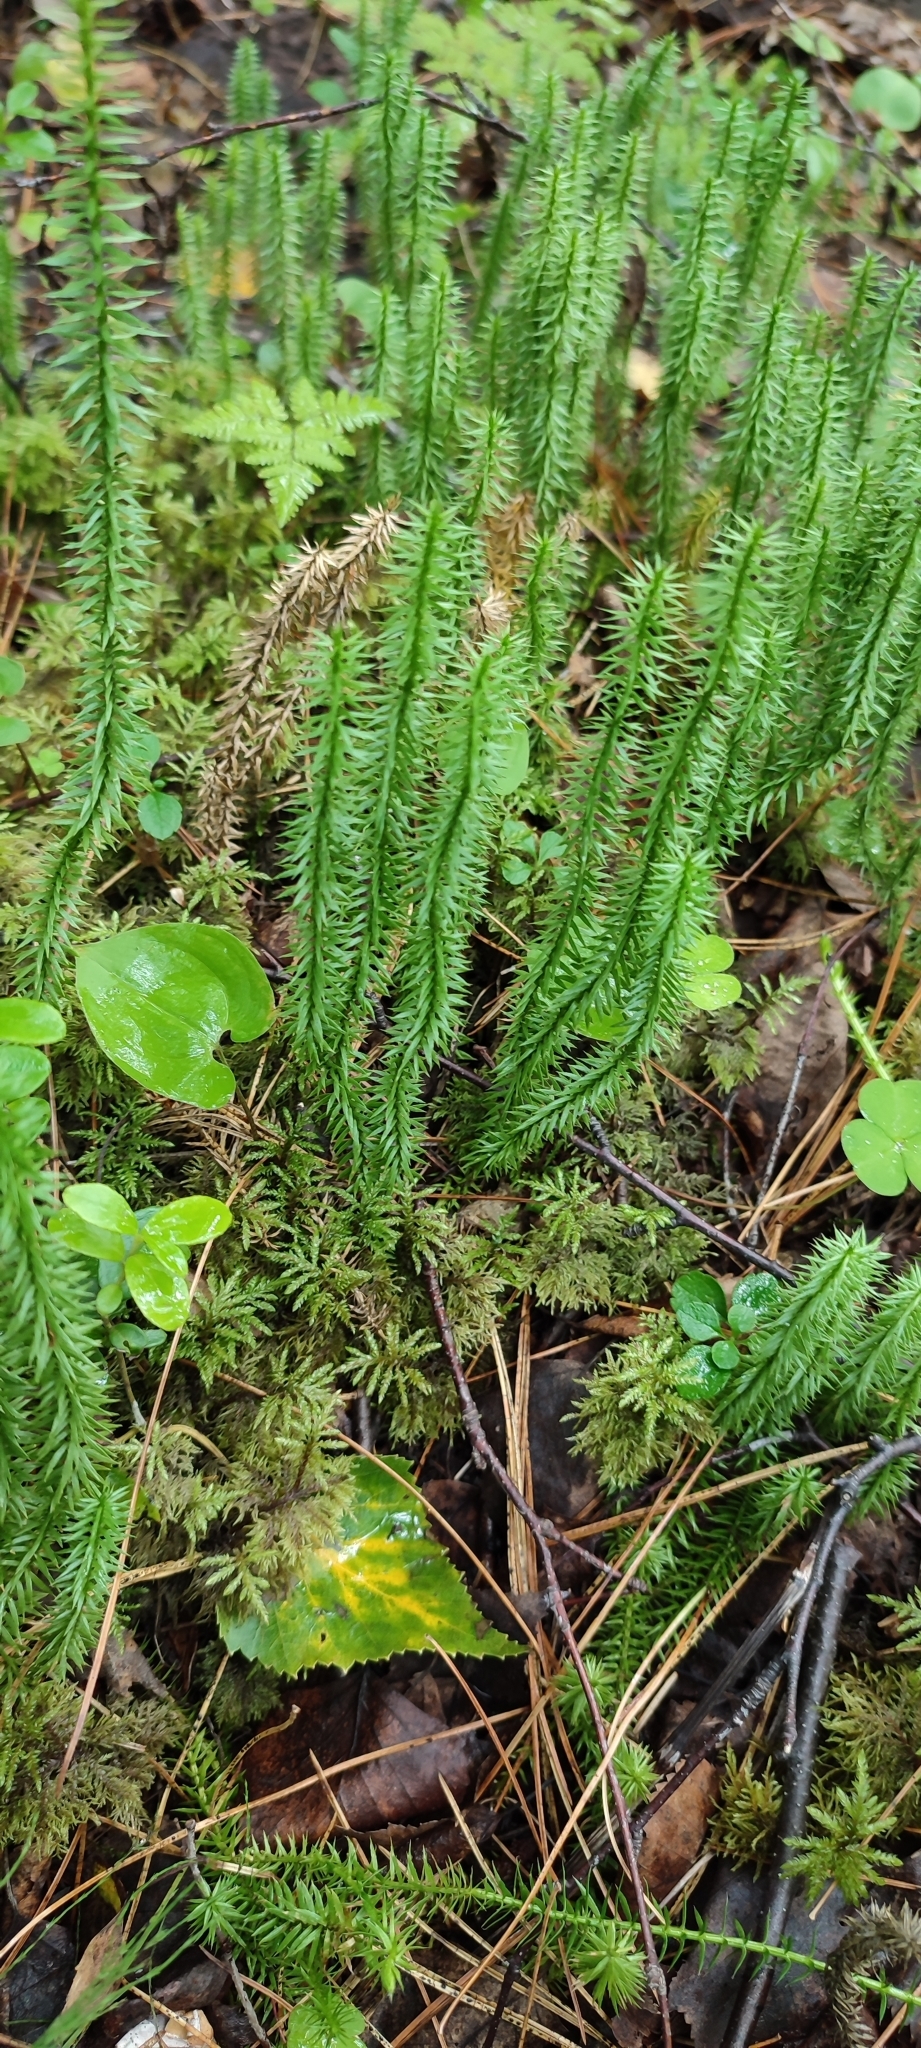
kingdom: Plantae
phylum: Tracheophyta
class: Lycopodiopsida
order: Lycopodiales
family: Lycopodiaceae
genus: Spinulum
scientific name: Spinulum annotinum
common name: Interrupted club-moss
